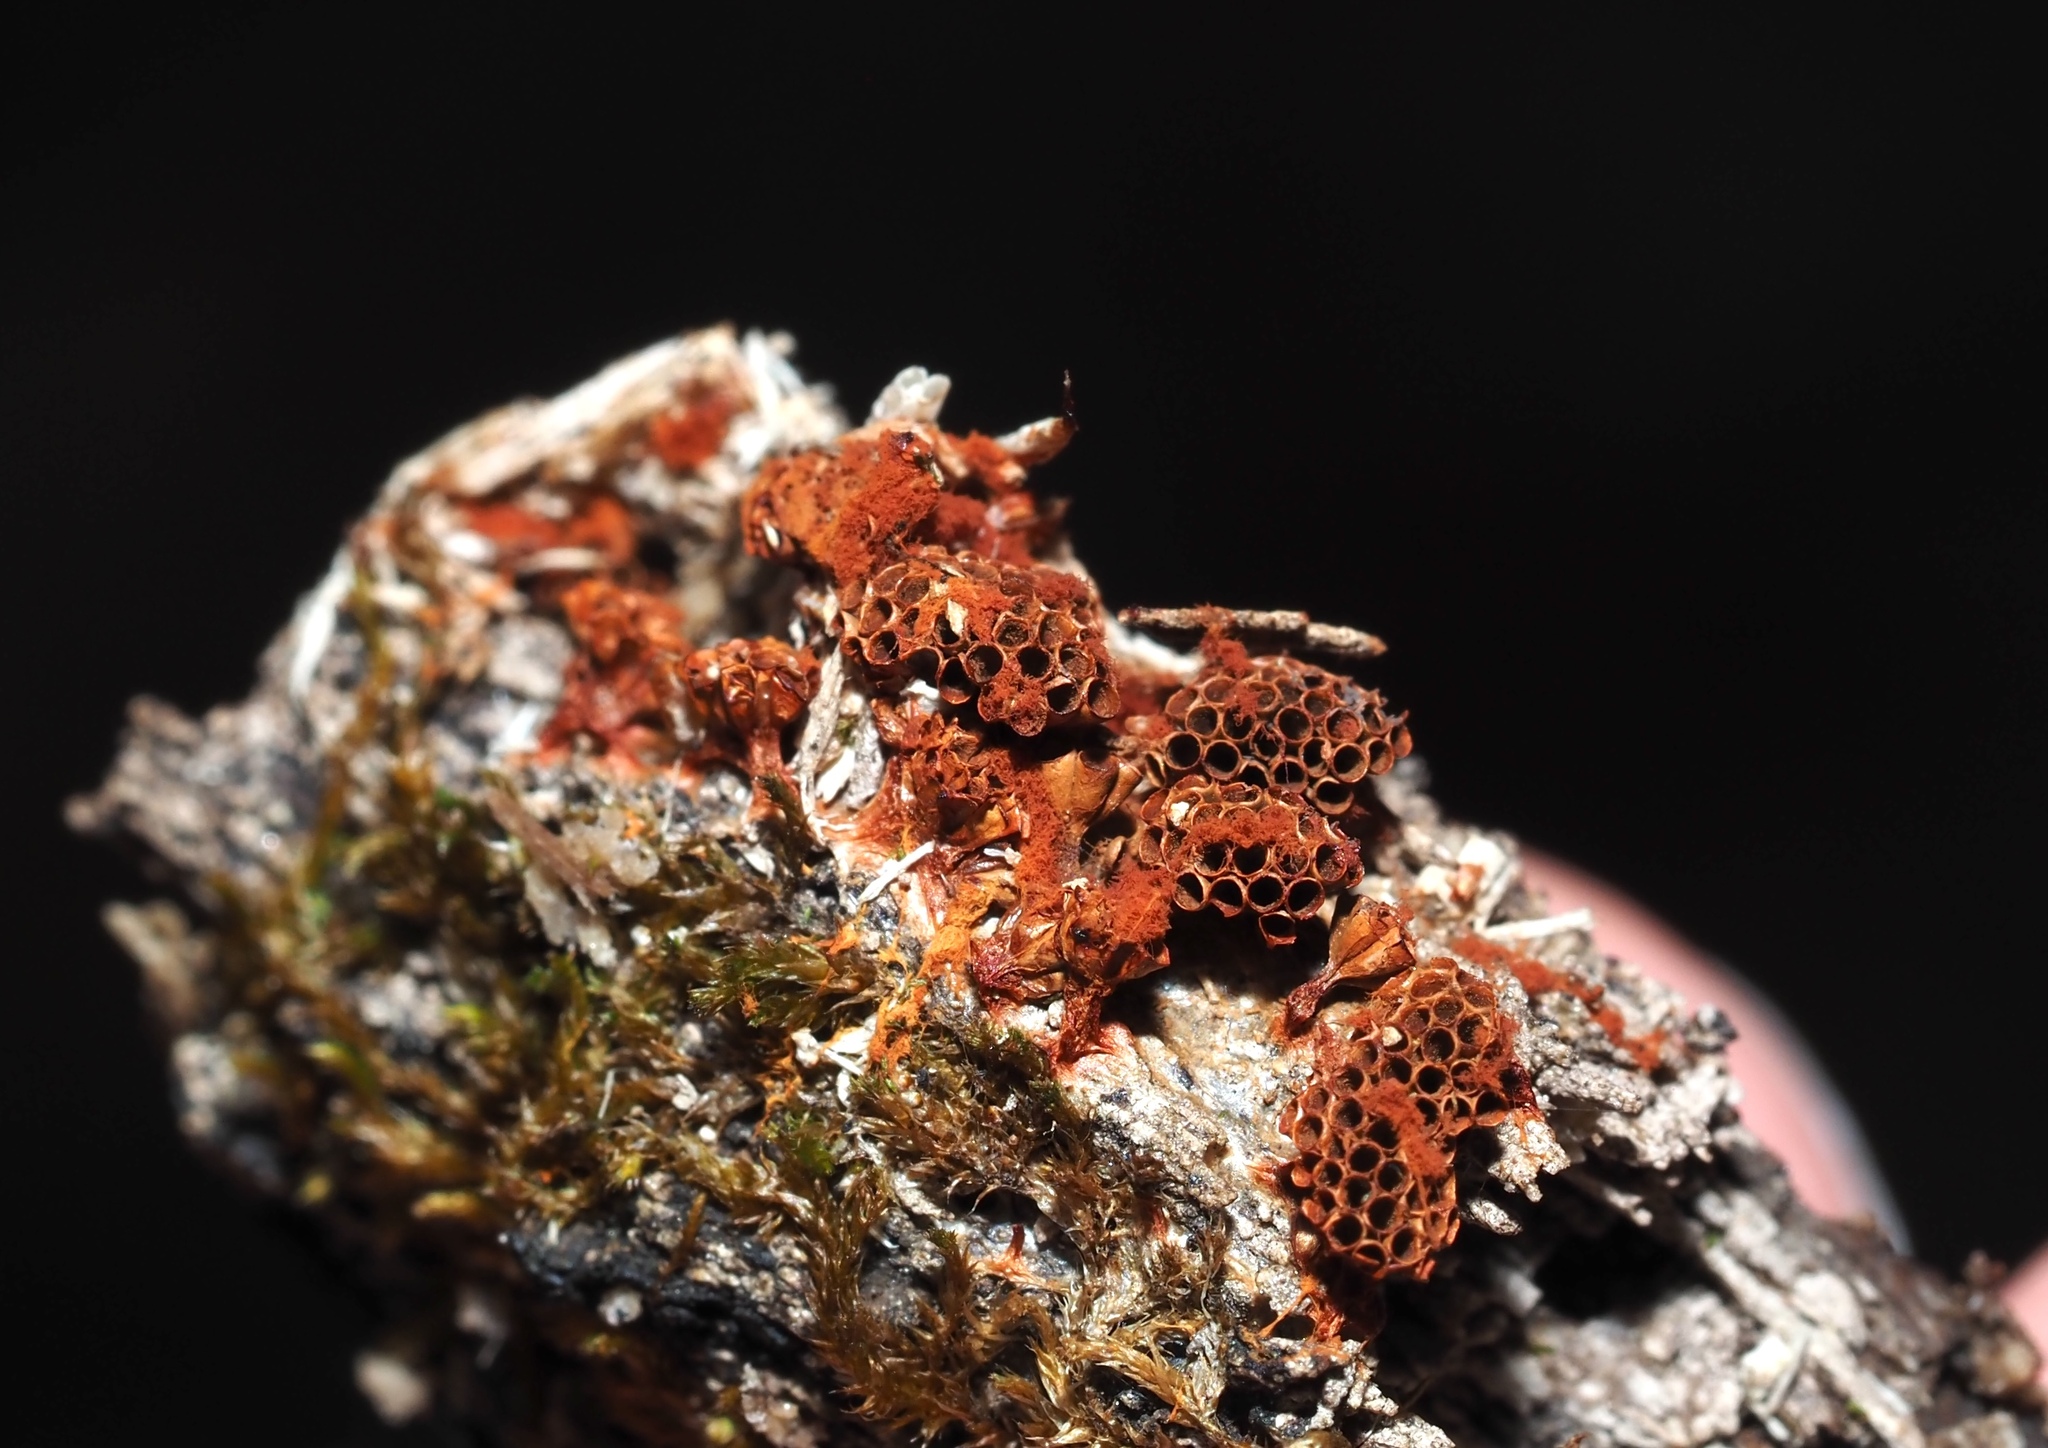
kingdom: Protozoa
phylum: Mycetozoa
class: Myxomycetes
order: Trichiales
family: Trichiaceae
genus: Metatrichia
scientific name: Metatrichia vesparia
